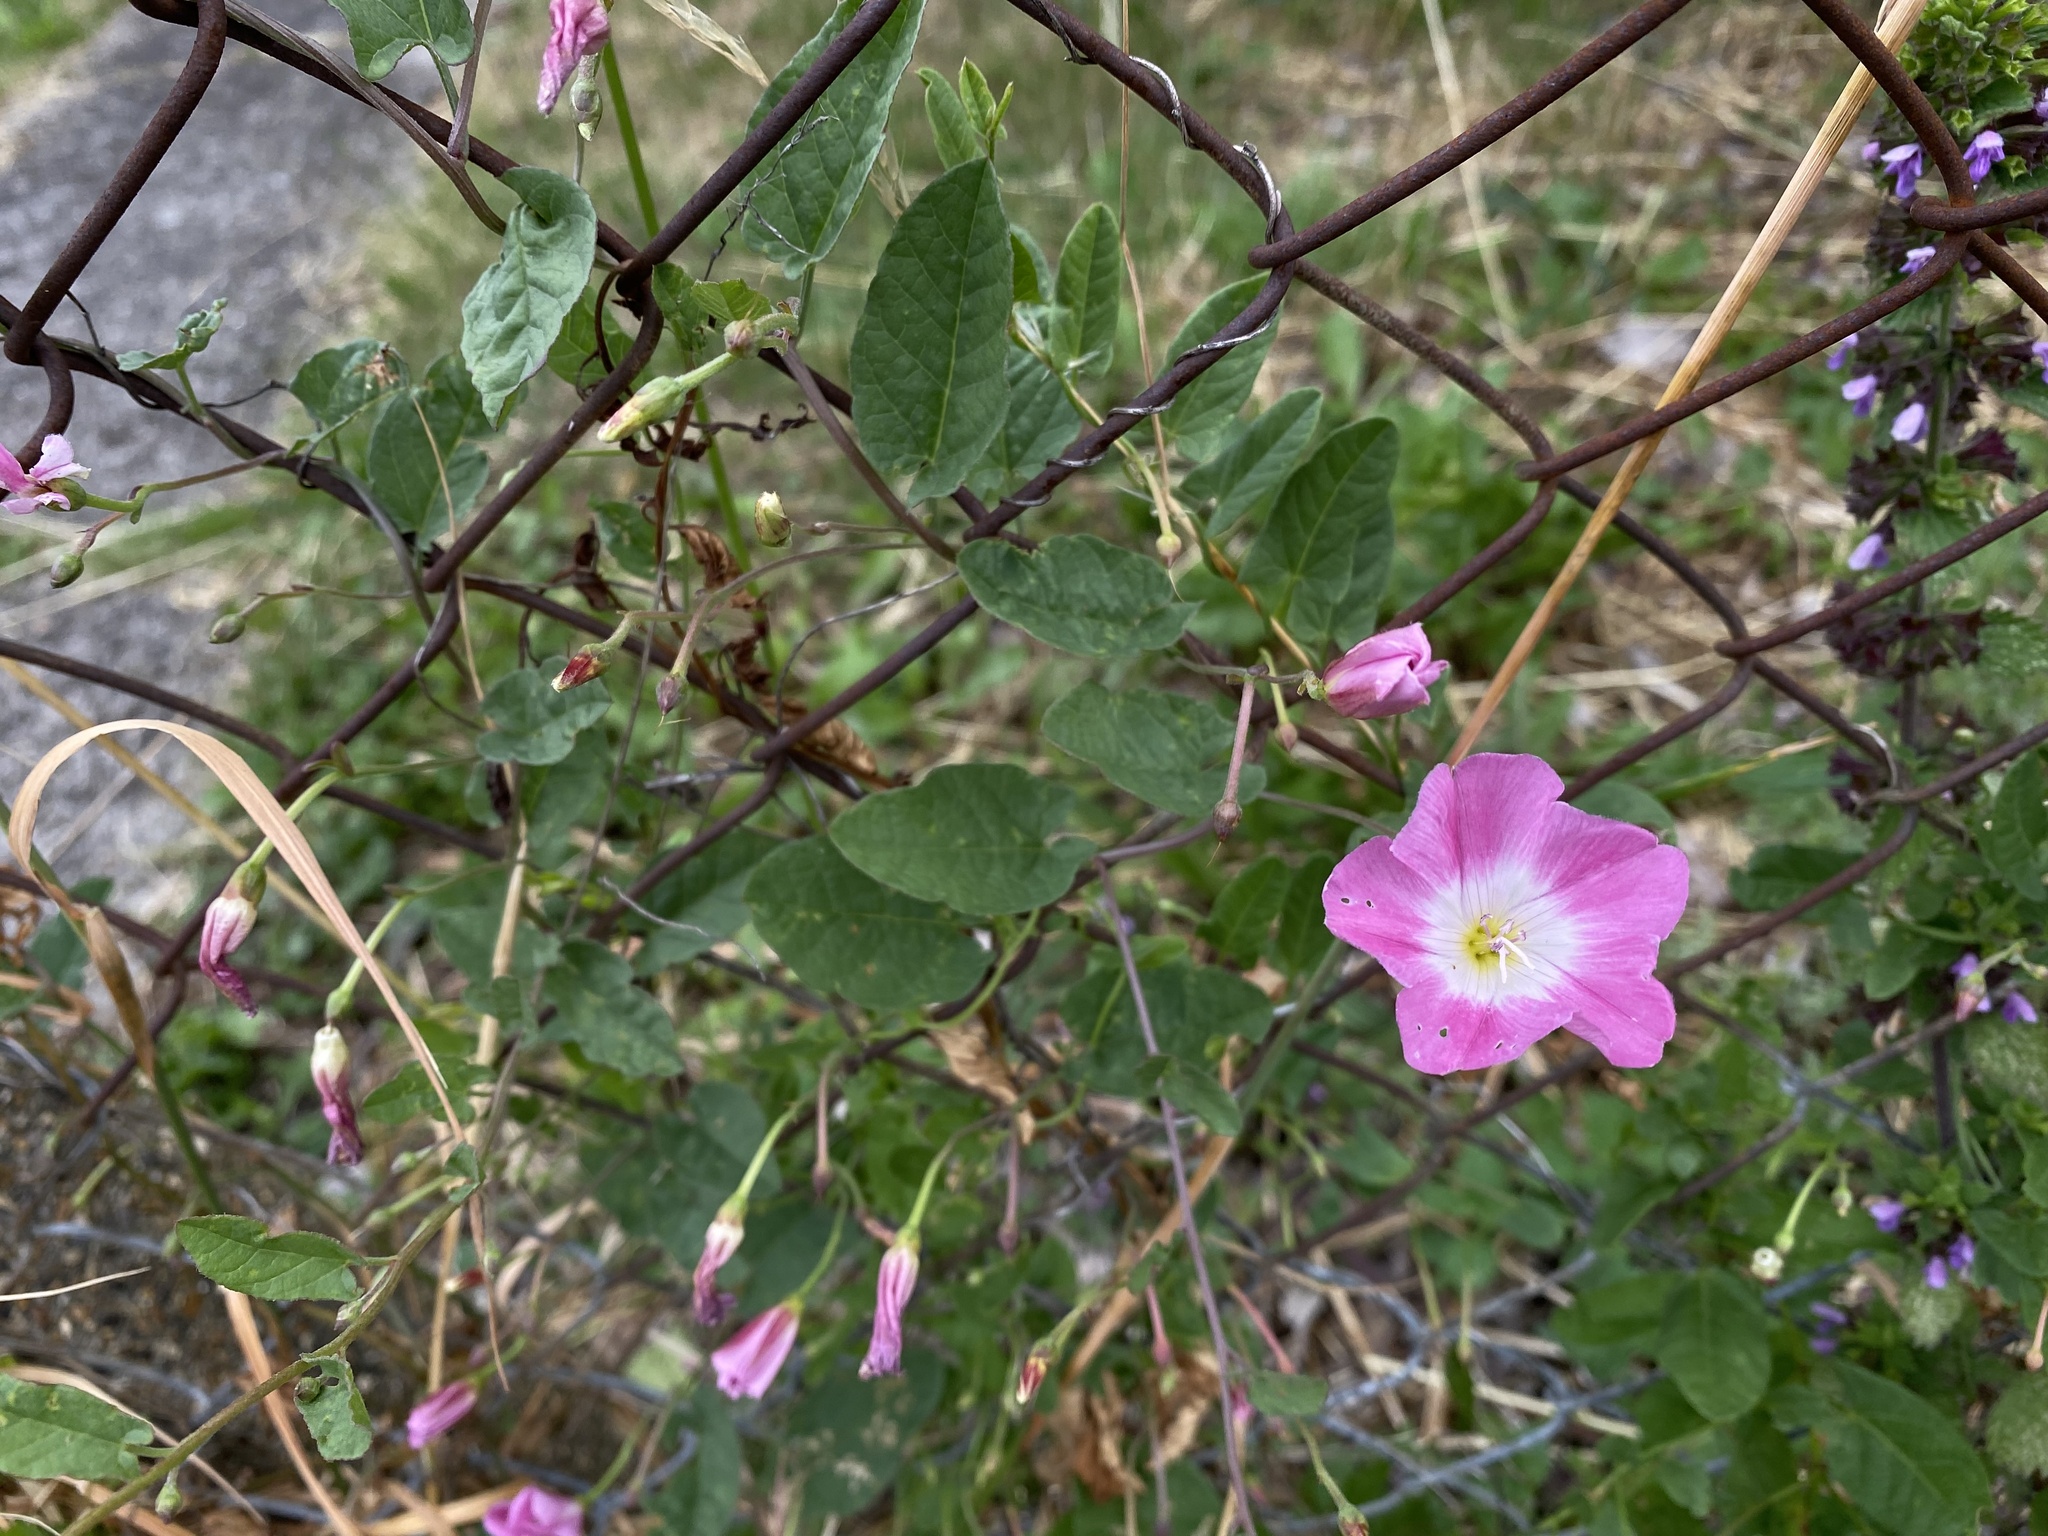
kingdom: Plantae
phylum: Tracheophyta
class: Magnoliopsida
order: Solanales
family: Convolvulaceae
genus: Convolvulus
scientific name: Convolvulus arvensis
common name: Field bindweed
